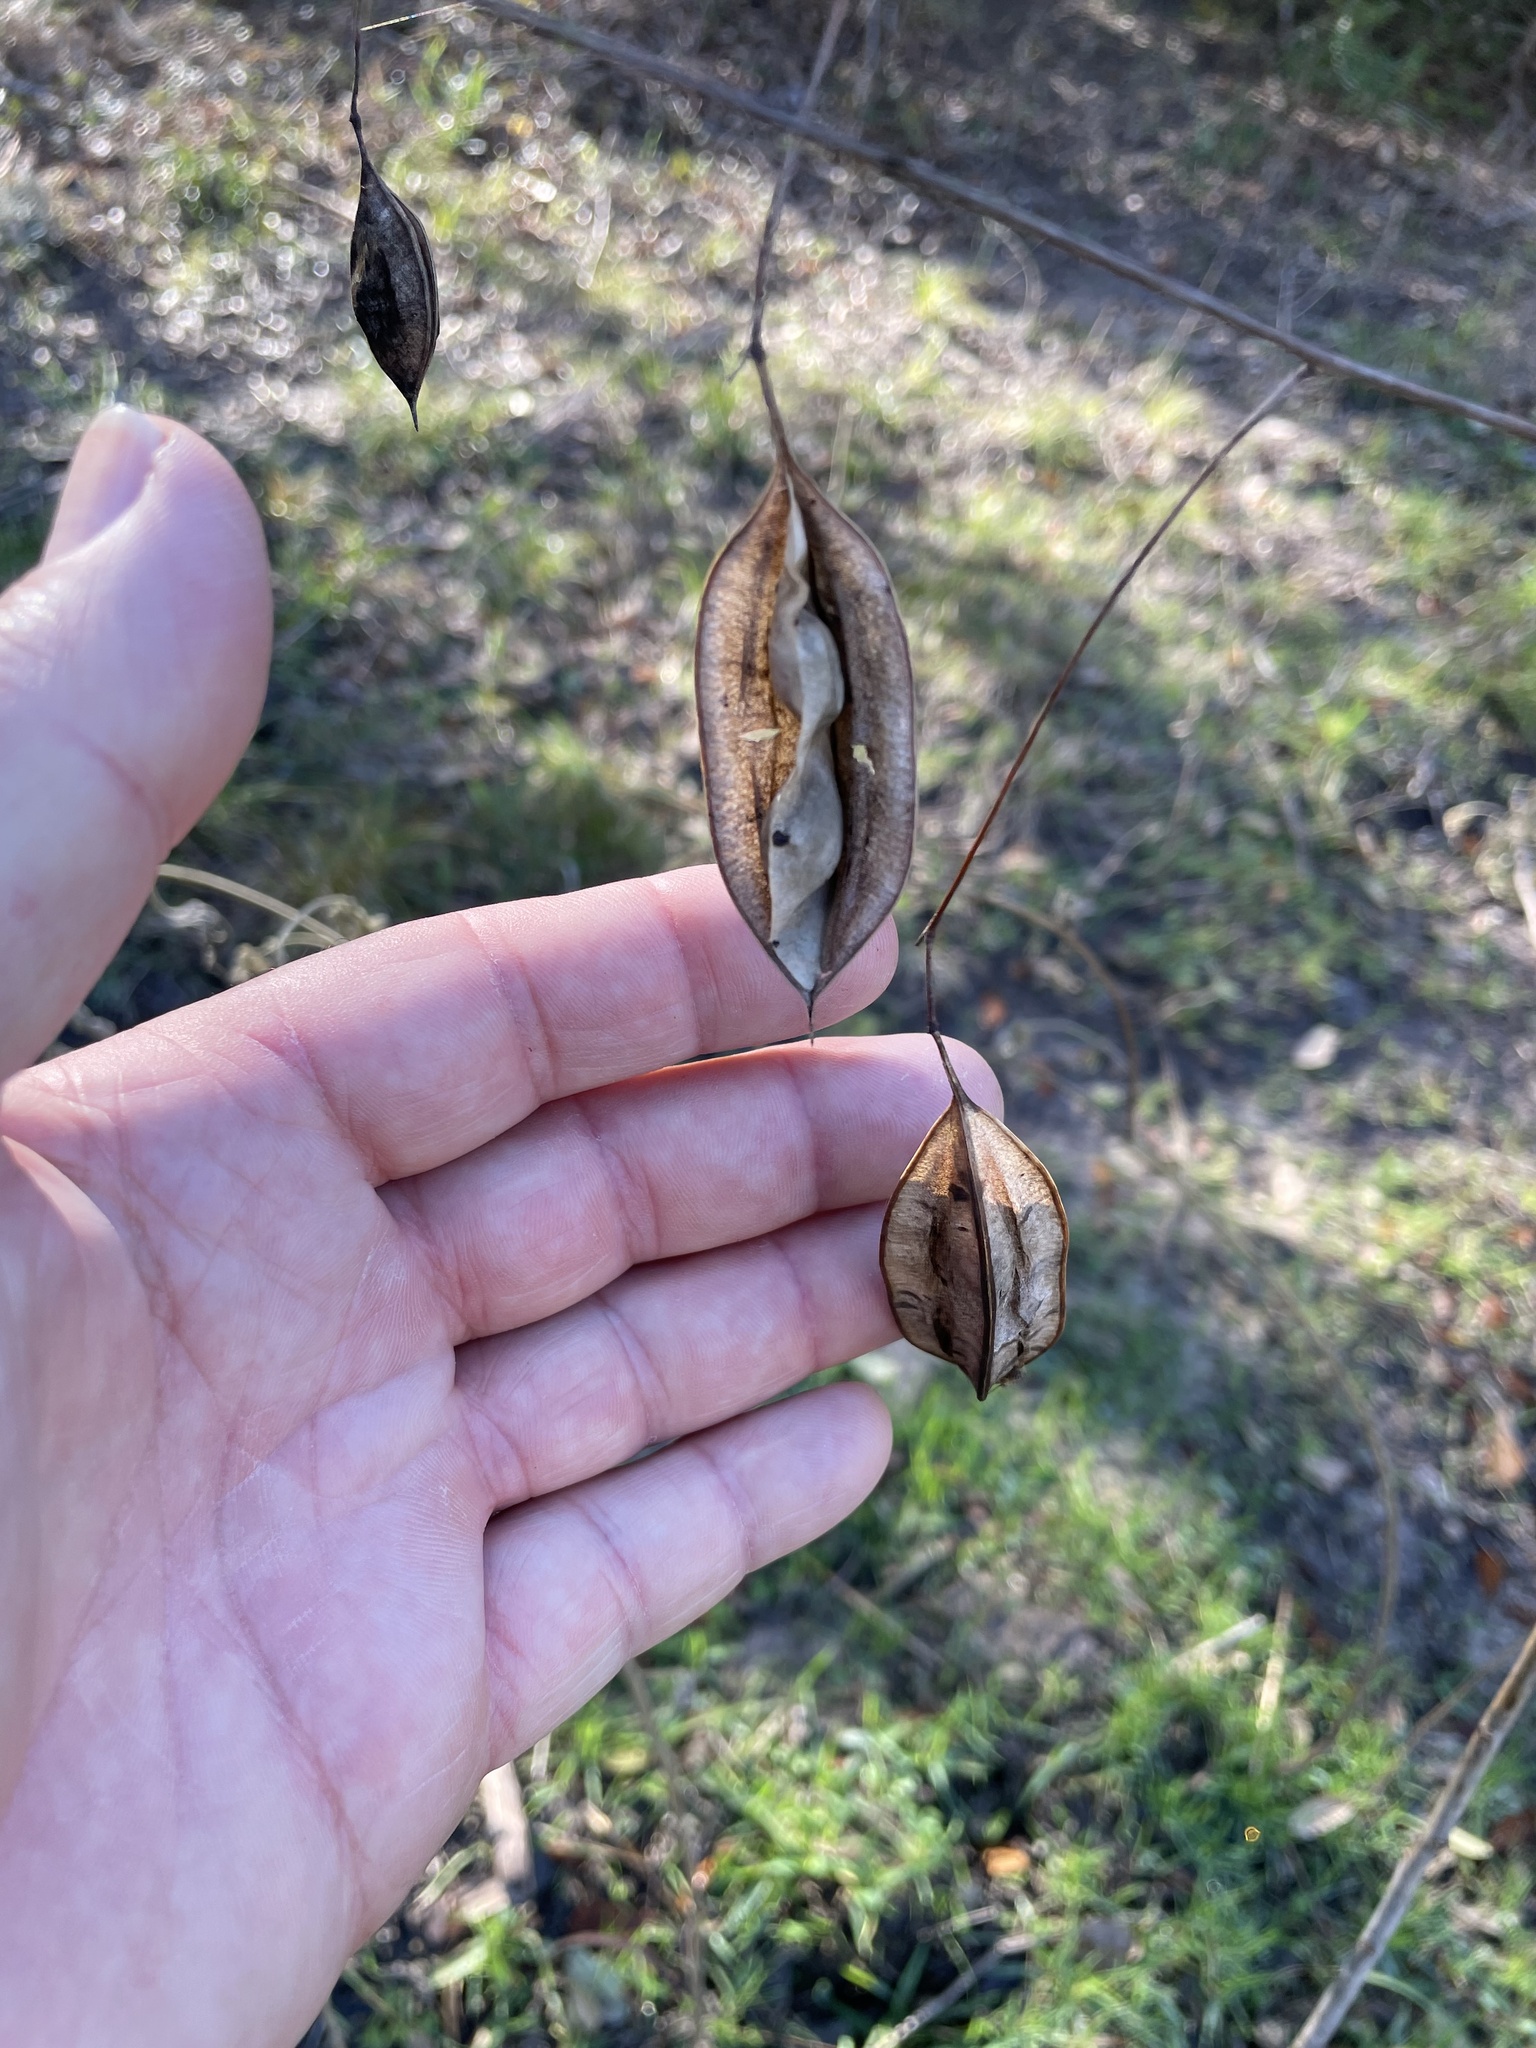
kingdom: Plantae
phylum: Tracheophyta
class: Magnoliopsida
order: Fabales
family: Fabaceae
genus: Sesbania
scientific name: Sesbania vesicaria
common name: Bagpod
